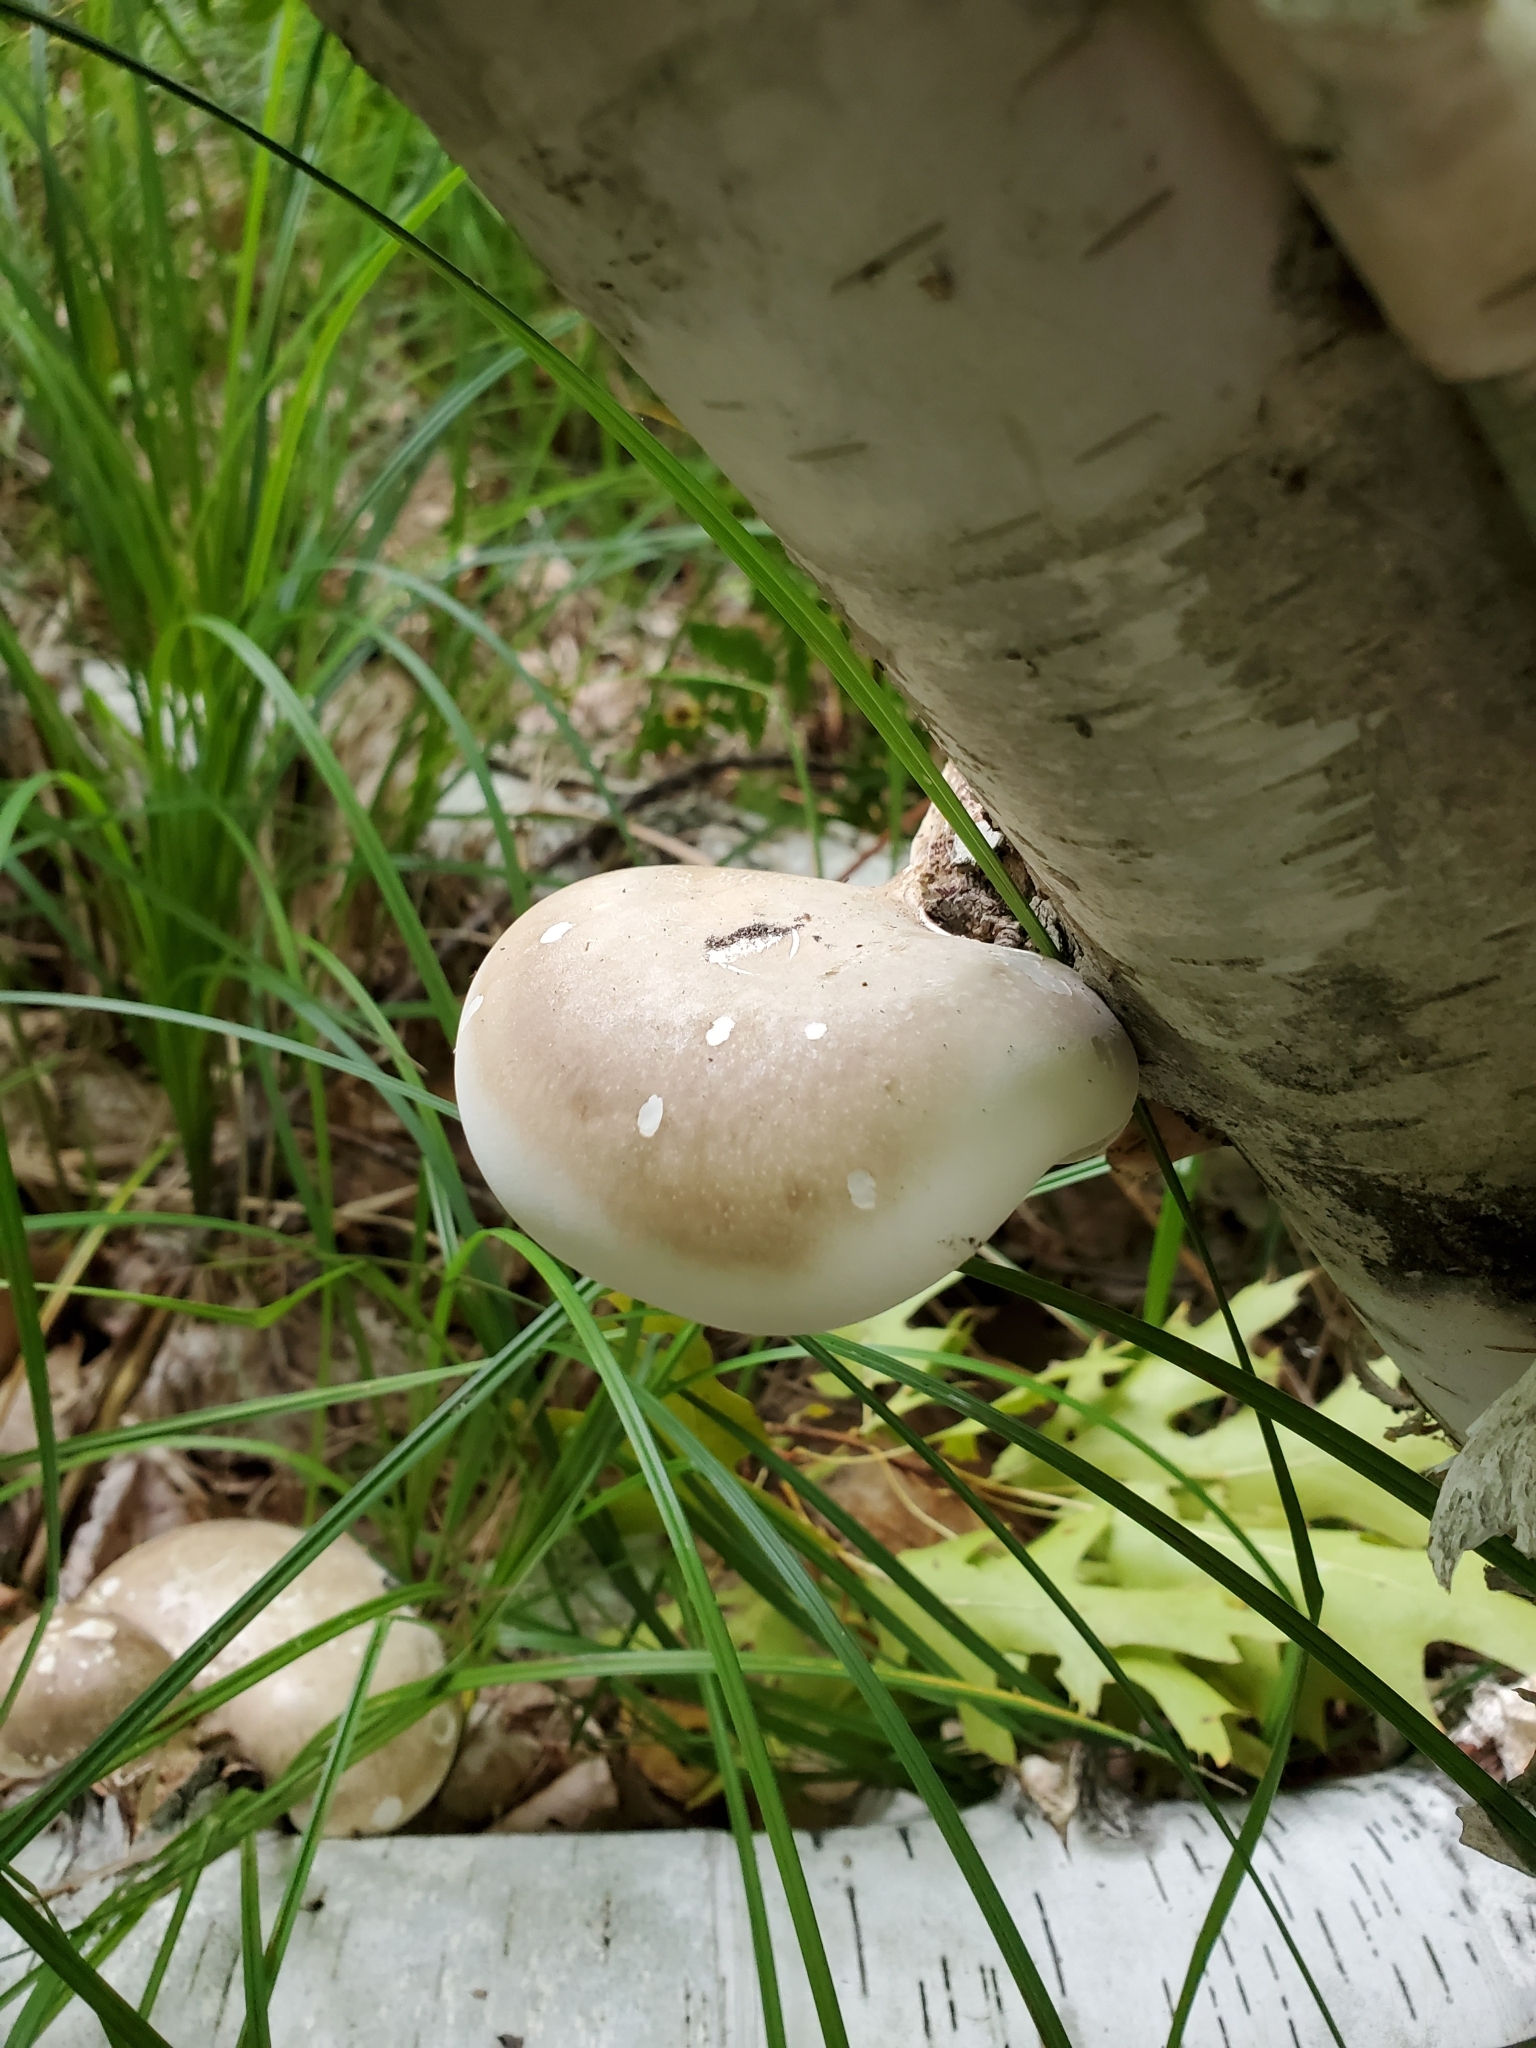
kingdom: Fungi
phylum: Basidiomycota
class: Agaricomycetes
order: Polyporales
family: Fomitopsidaceae
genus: Fomitopsis
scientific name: Fomitopsis betulina
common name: Birch polypore
